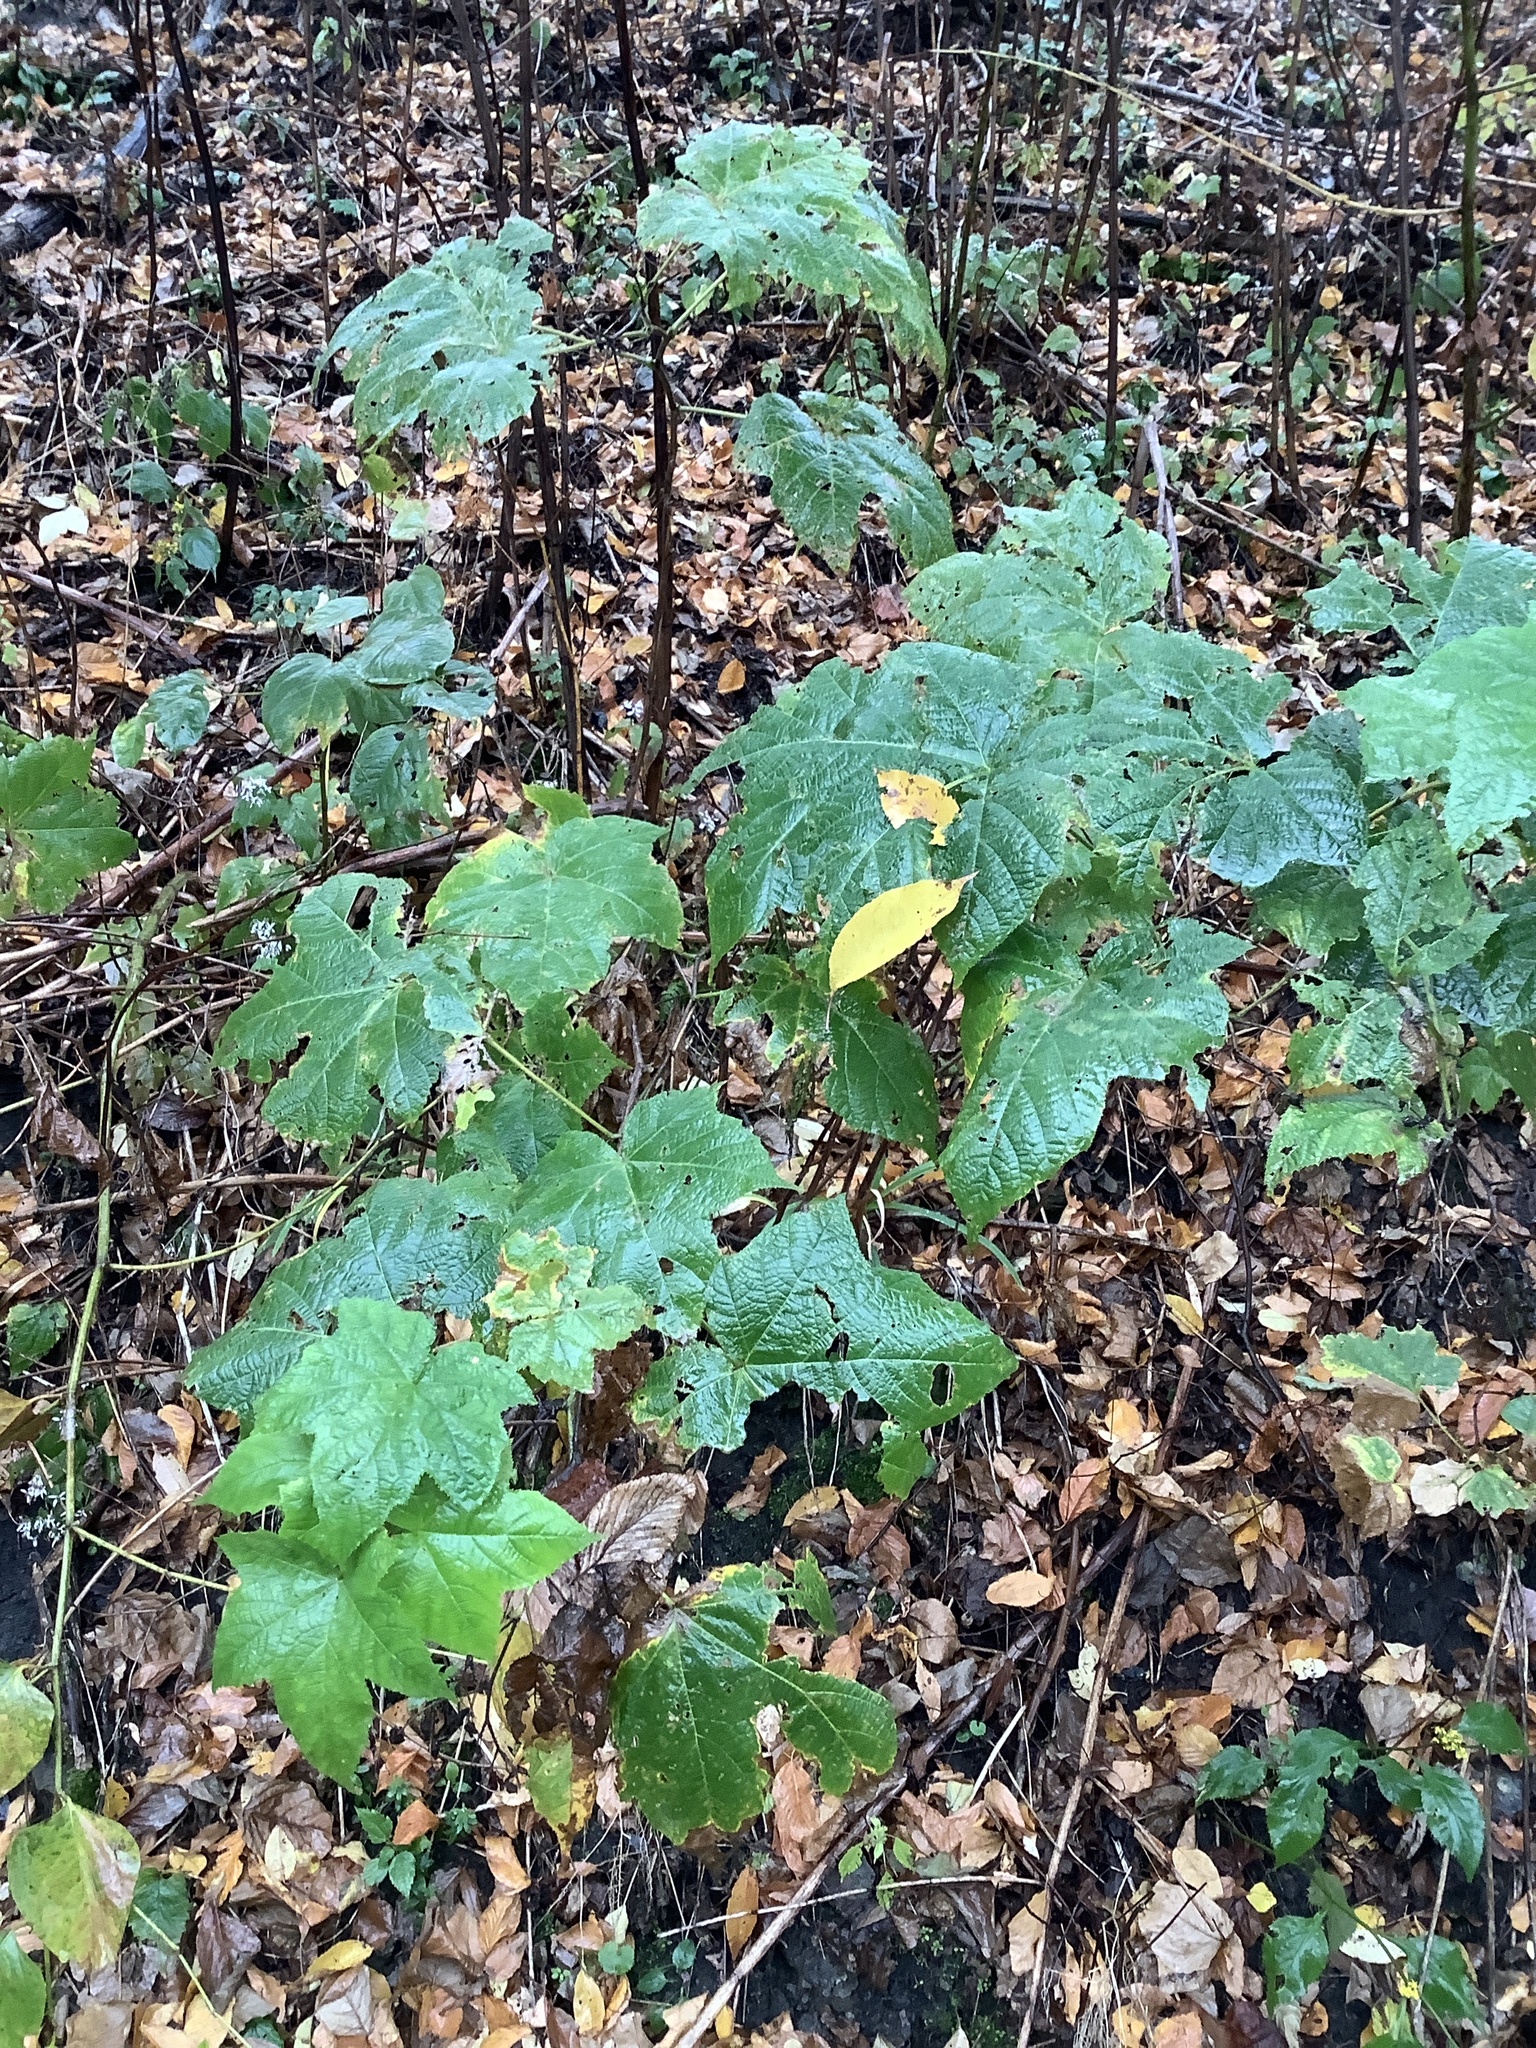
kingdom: Plantae
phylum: Tracheophyta
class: Magnoliopsida
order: Rosales
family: Rosaceae
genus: Rubus
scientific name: Rubus odoratus
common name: Purple-flowered raspberry
